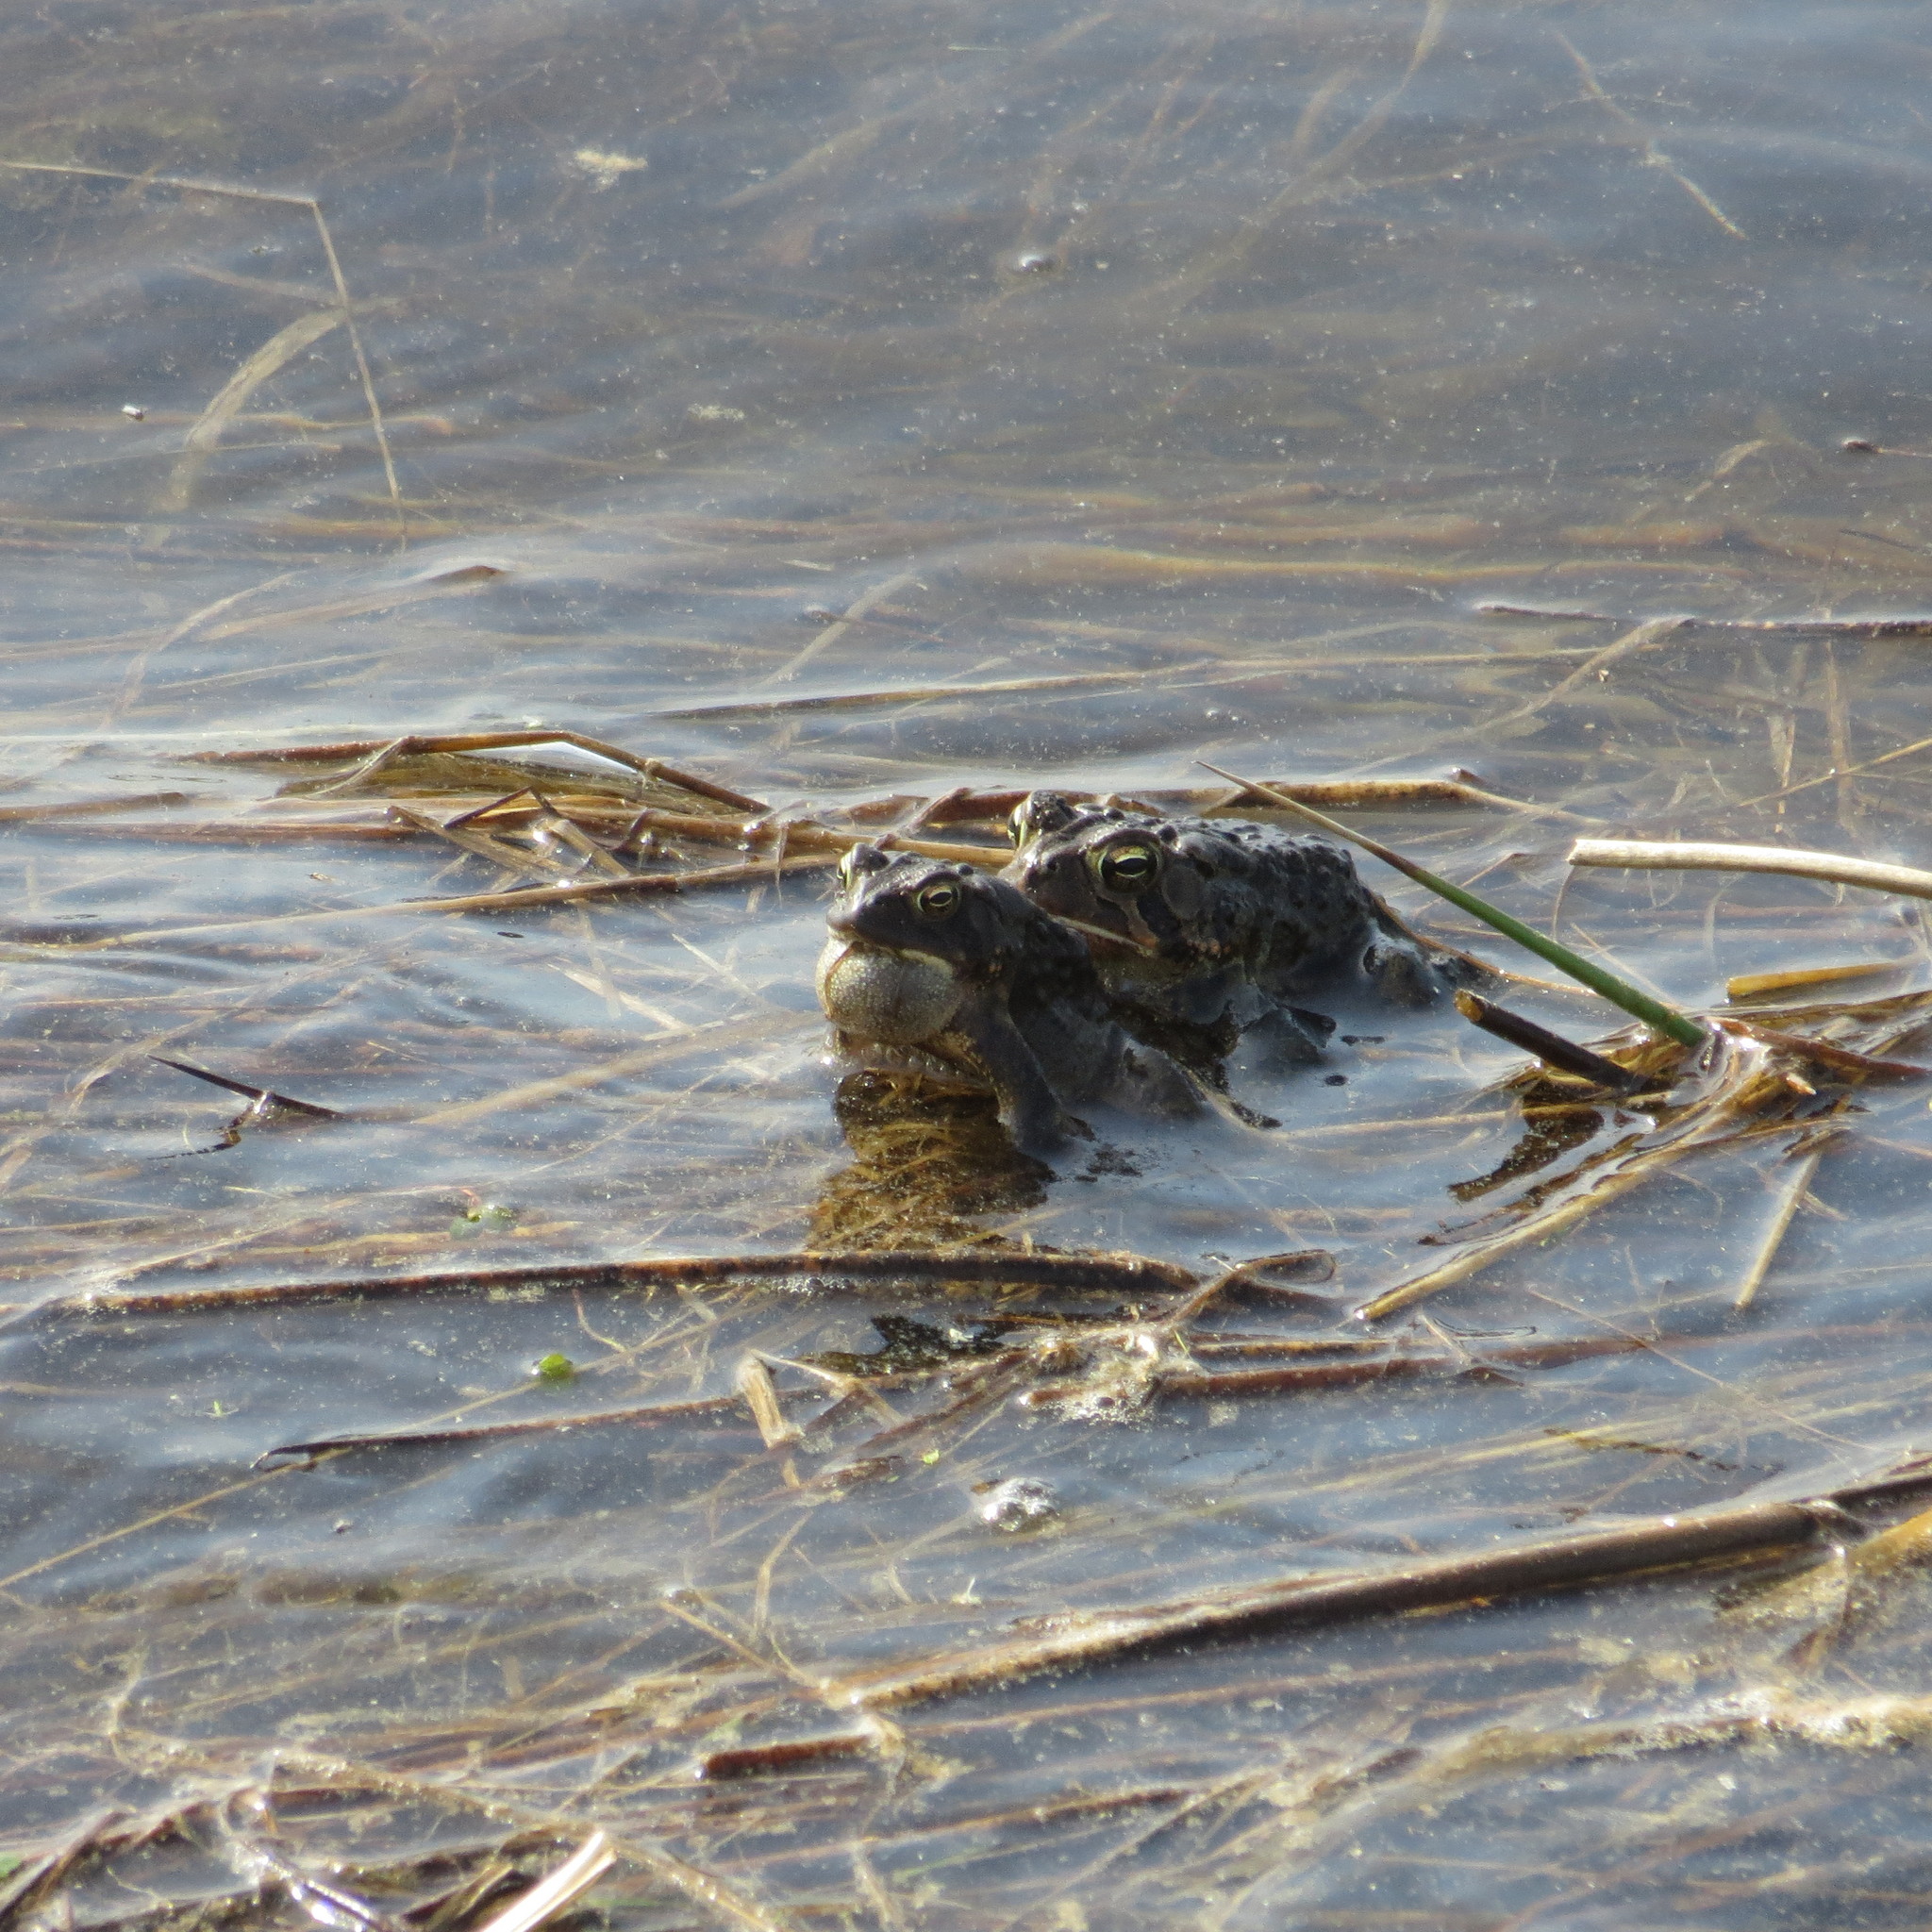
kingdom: Animalia
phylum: Chordata
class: Amphibia
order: Anura
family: Bufonidae
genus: Anaxyrus
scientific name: Anaxyrus americanus
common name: American toad
